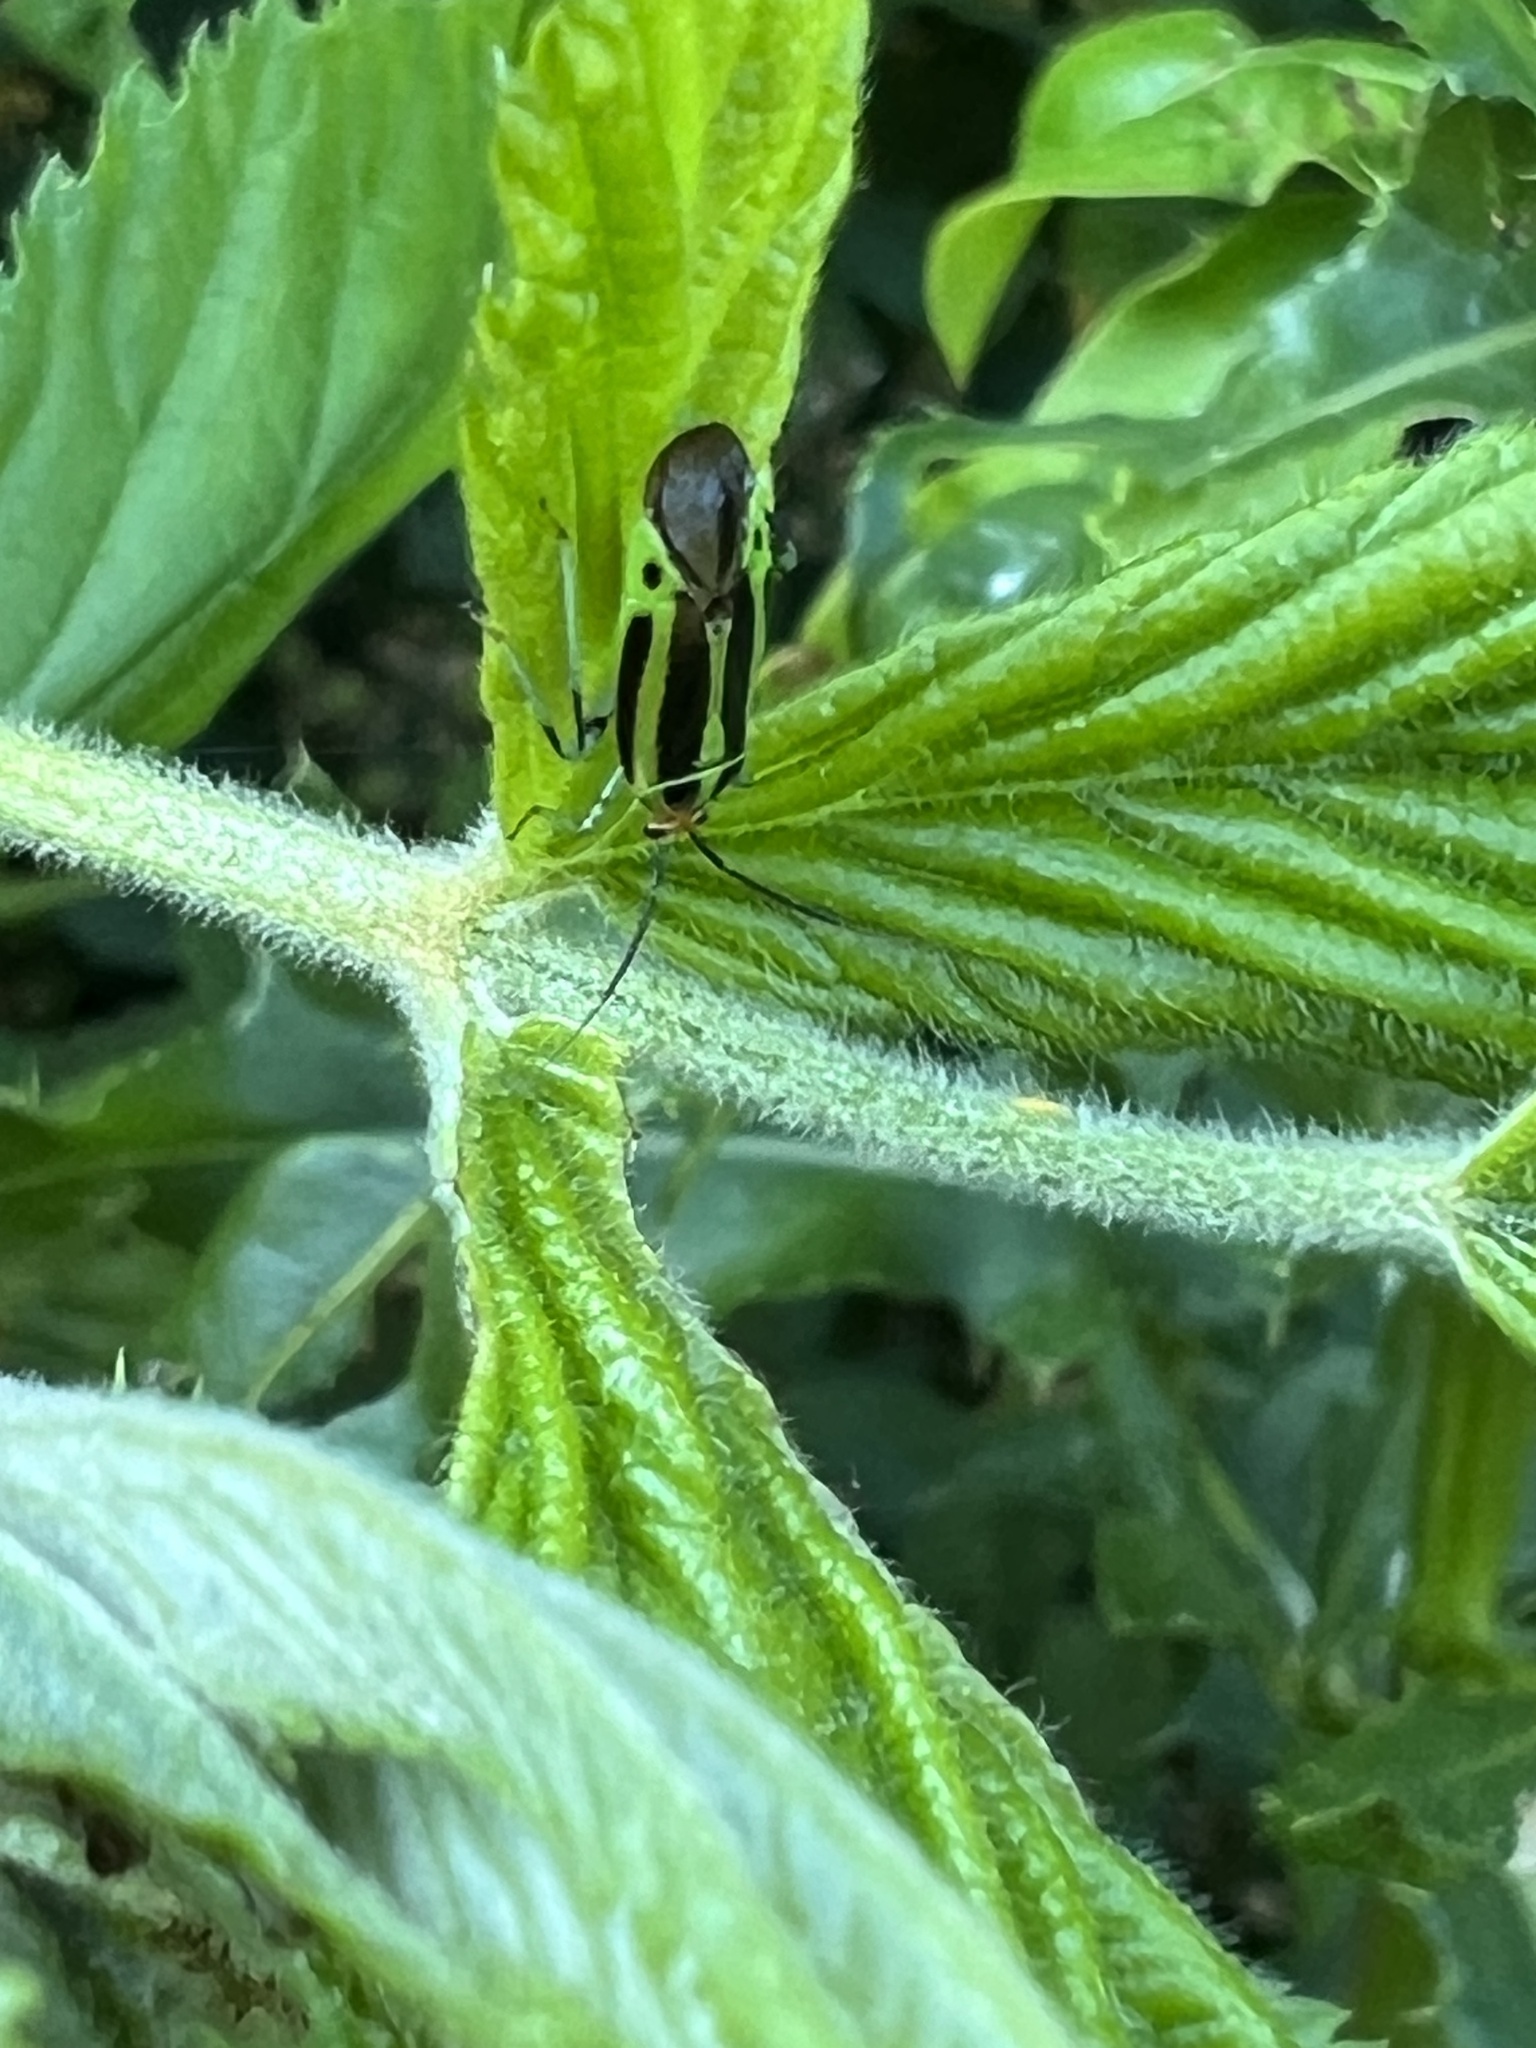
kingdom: Animalia
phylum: Arthropoda
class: Insecta
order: Hemiptera
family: Miridae
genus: Poecilocapsus
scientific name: Poecilocapsus lineatus
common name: Four-lined plant bug
